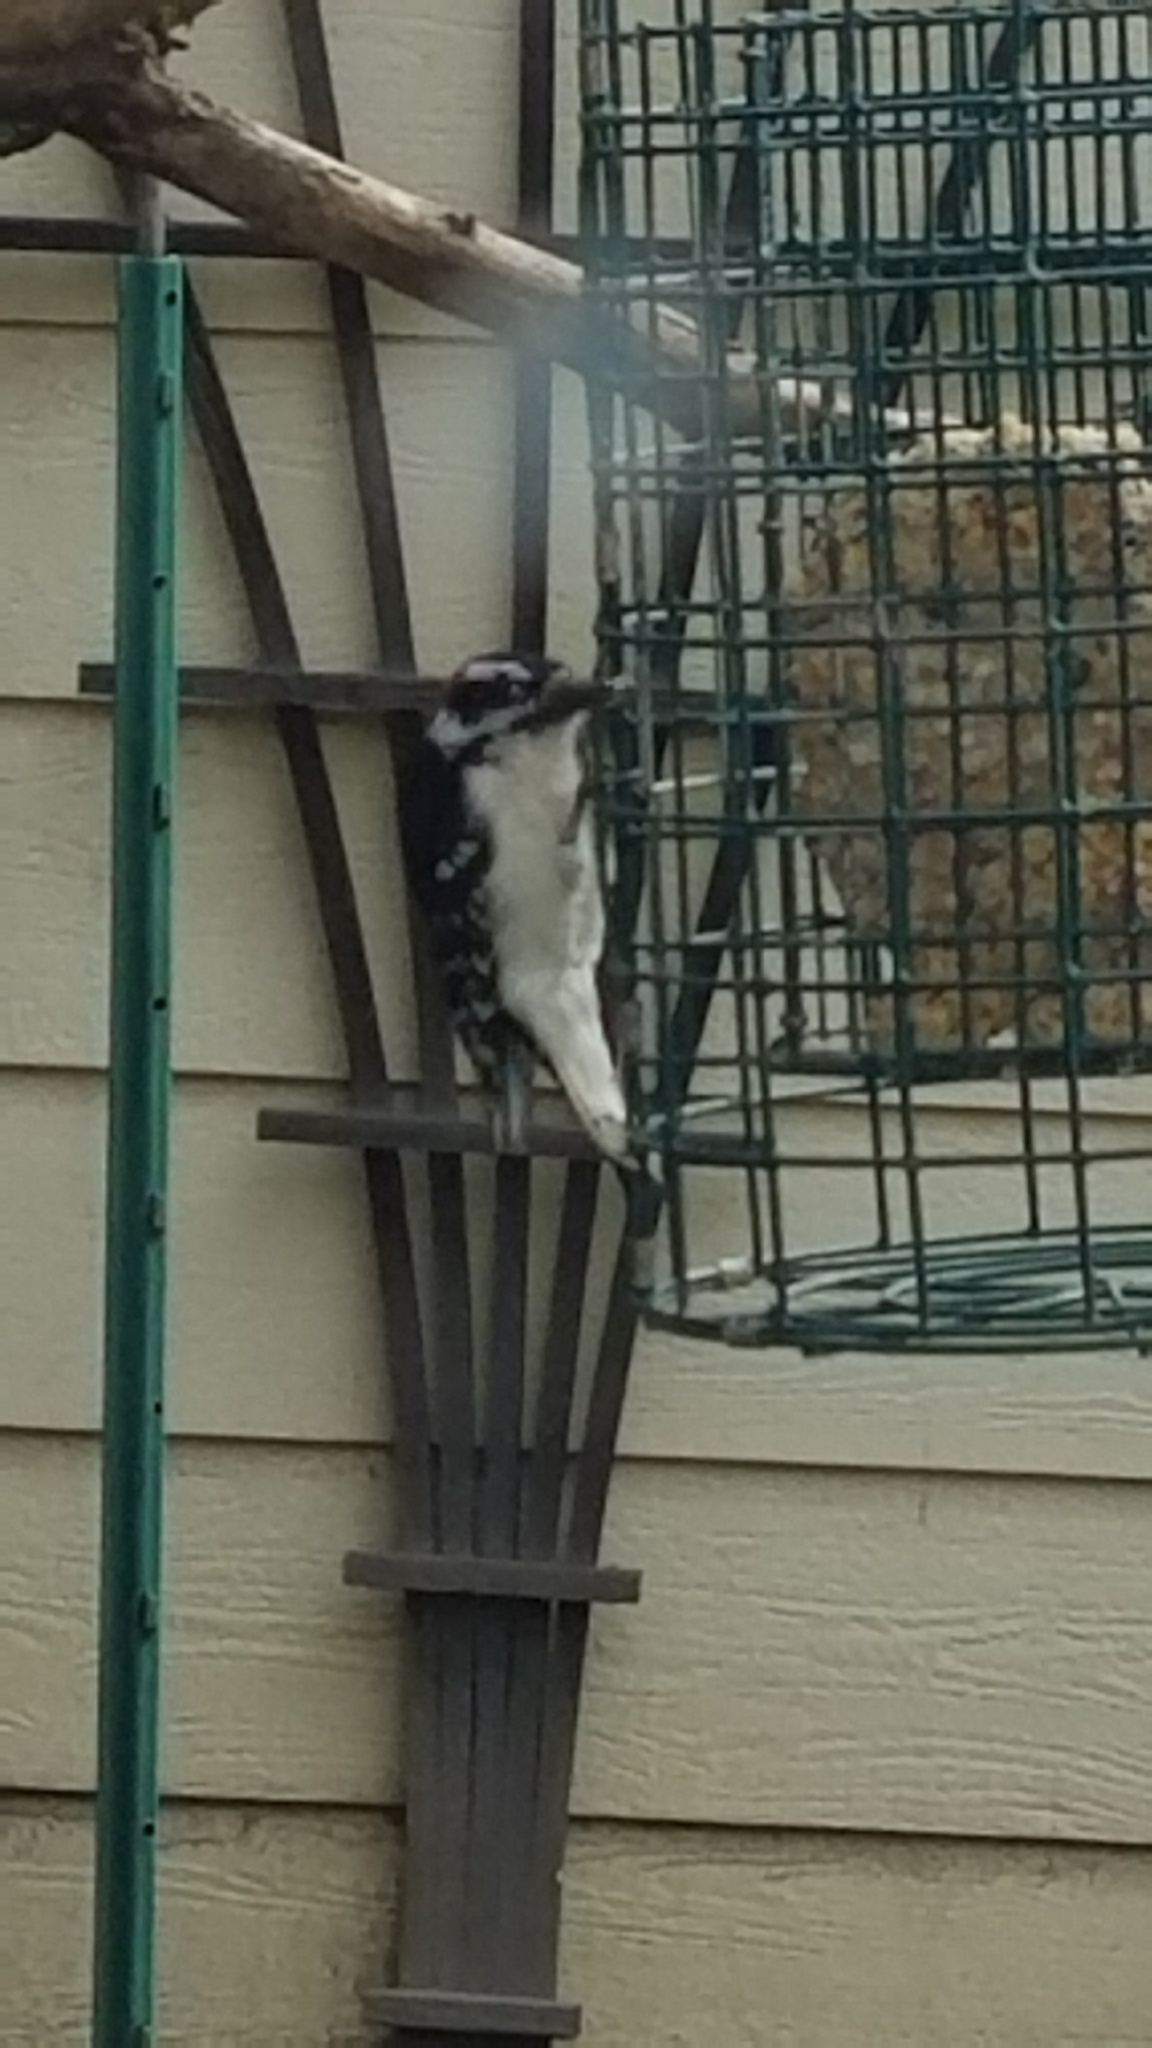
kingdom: Animalia
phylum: Chordata
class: Aves
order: Piciformes
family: Picidae
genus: Dryobates
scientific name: Dryobates pubescens
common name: Downy woodpecker
